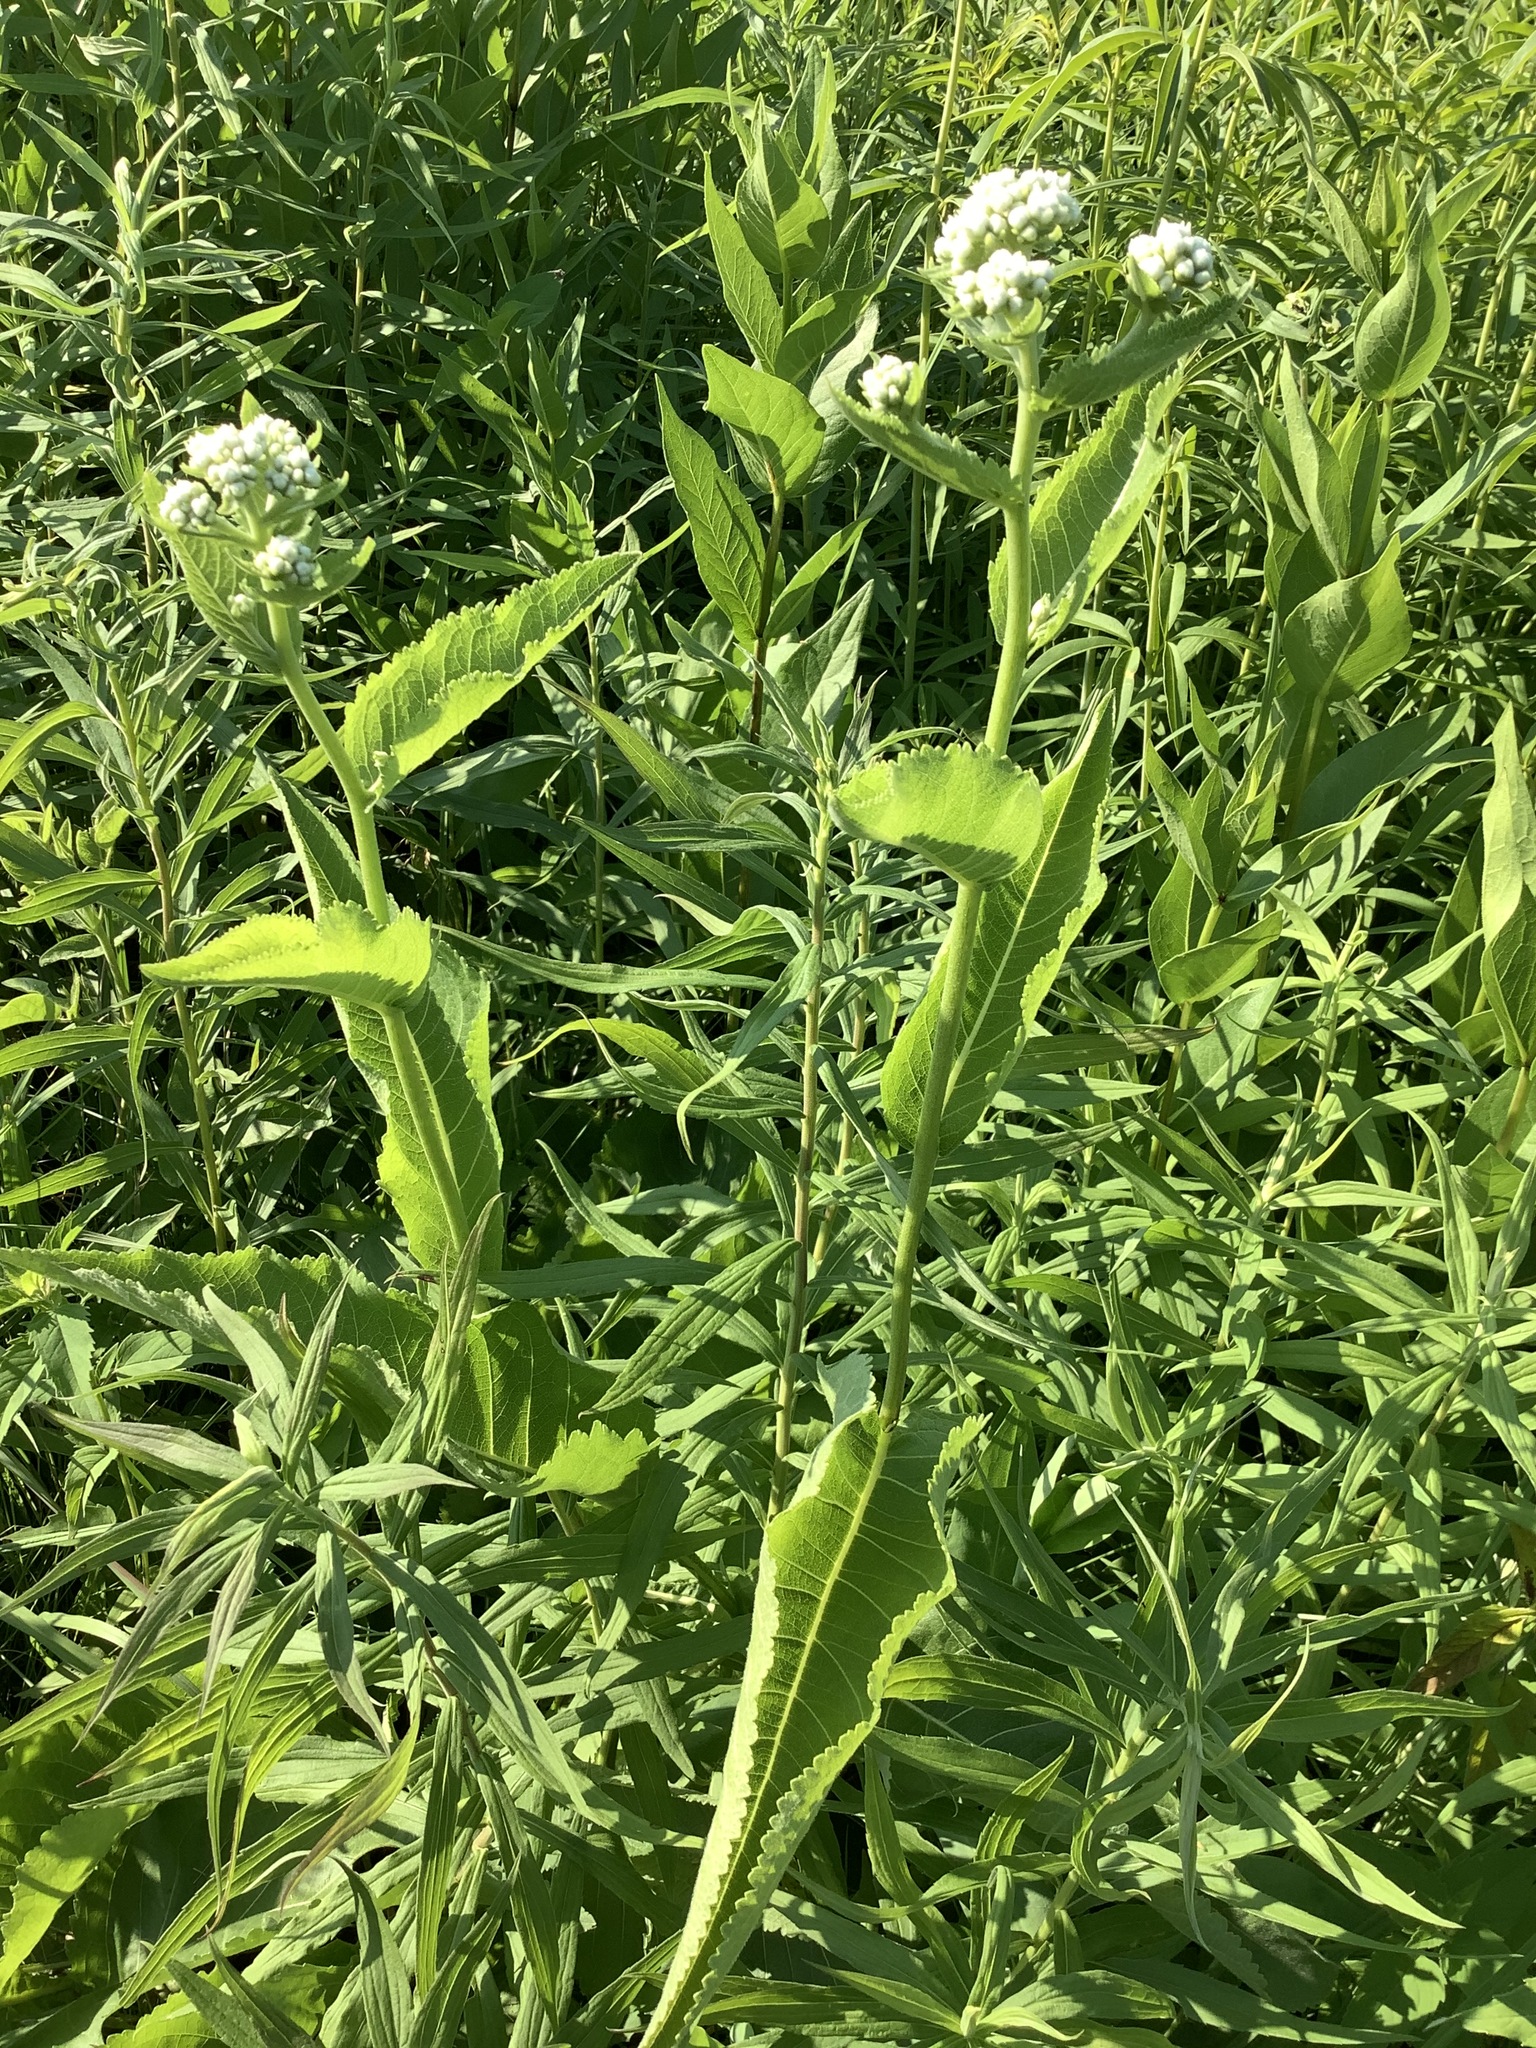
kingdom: Plantae
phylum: Tracheophyta
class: Magnoliopsida
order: Asterales
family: Asteraceae
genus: Parthenium
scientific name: Parthenium integrifolium
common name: American feverfew
